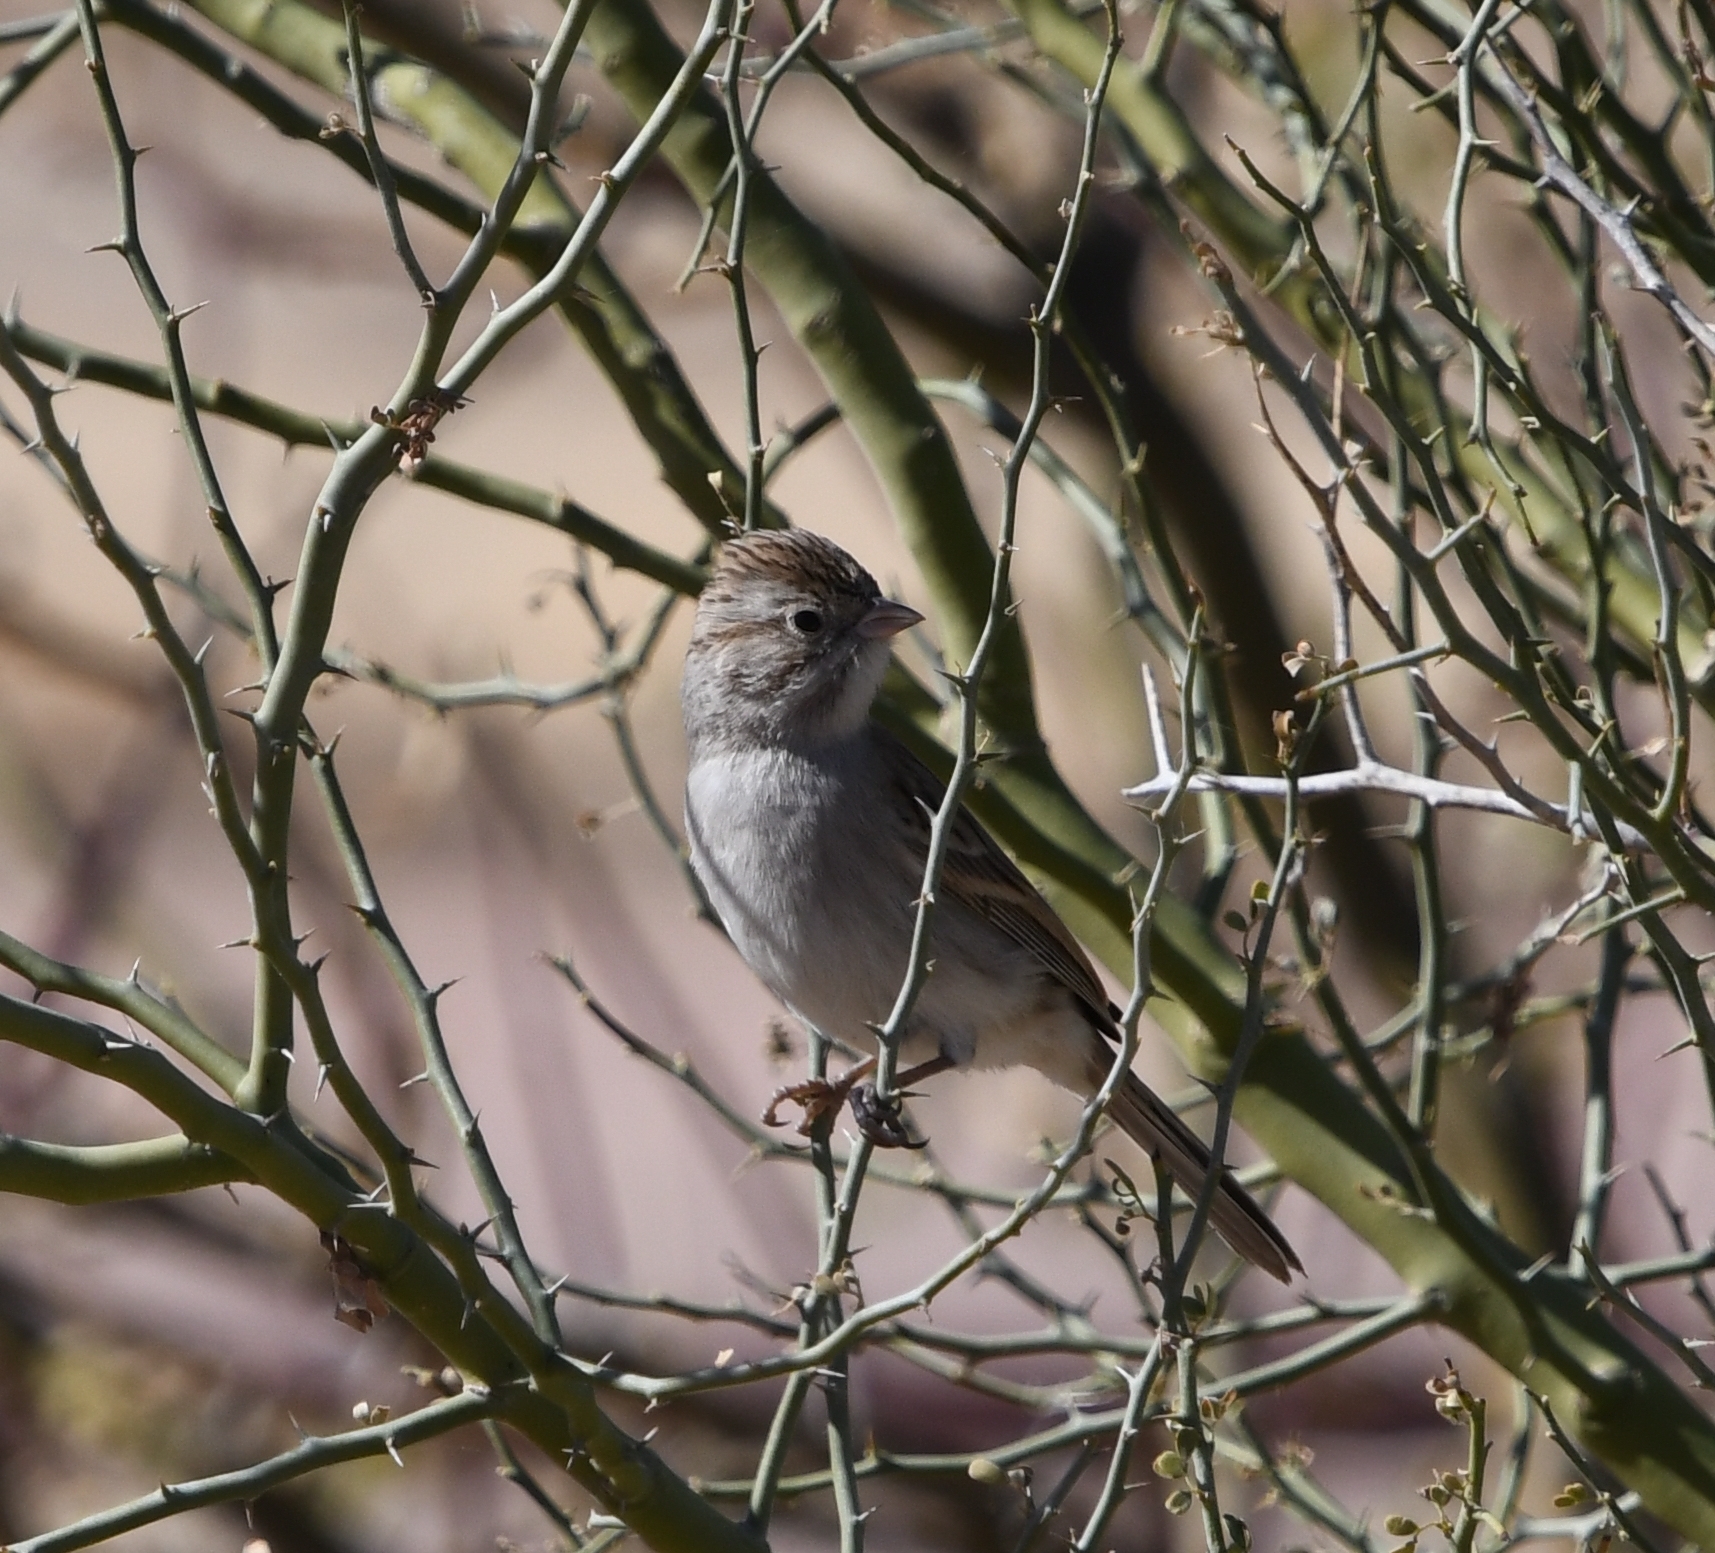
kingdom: Animalia
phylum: Chordata
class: Aves
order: Passeriformes
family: Passerellidae
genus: Spizella
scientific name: Spizella breweri
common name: Brewer's sparrow
